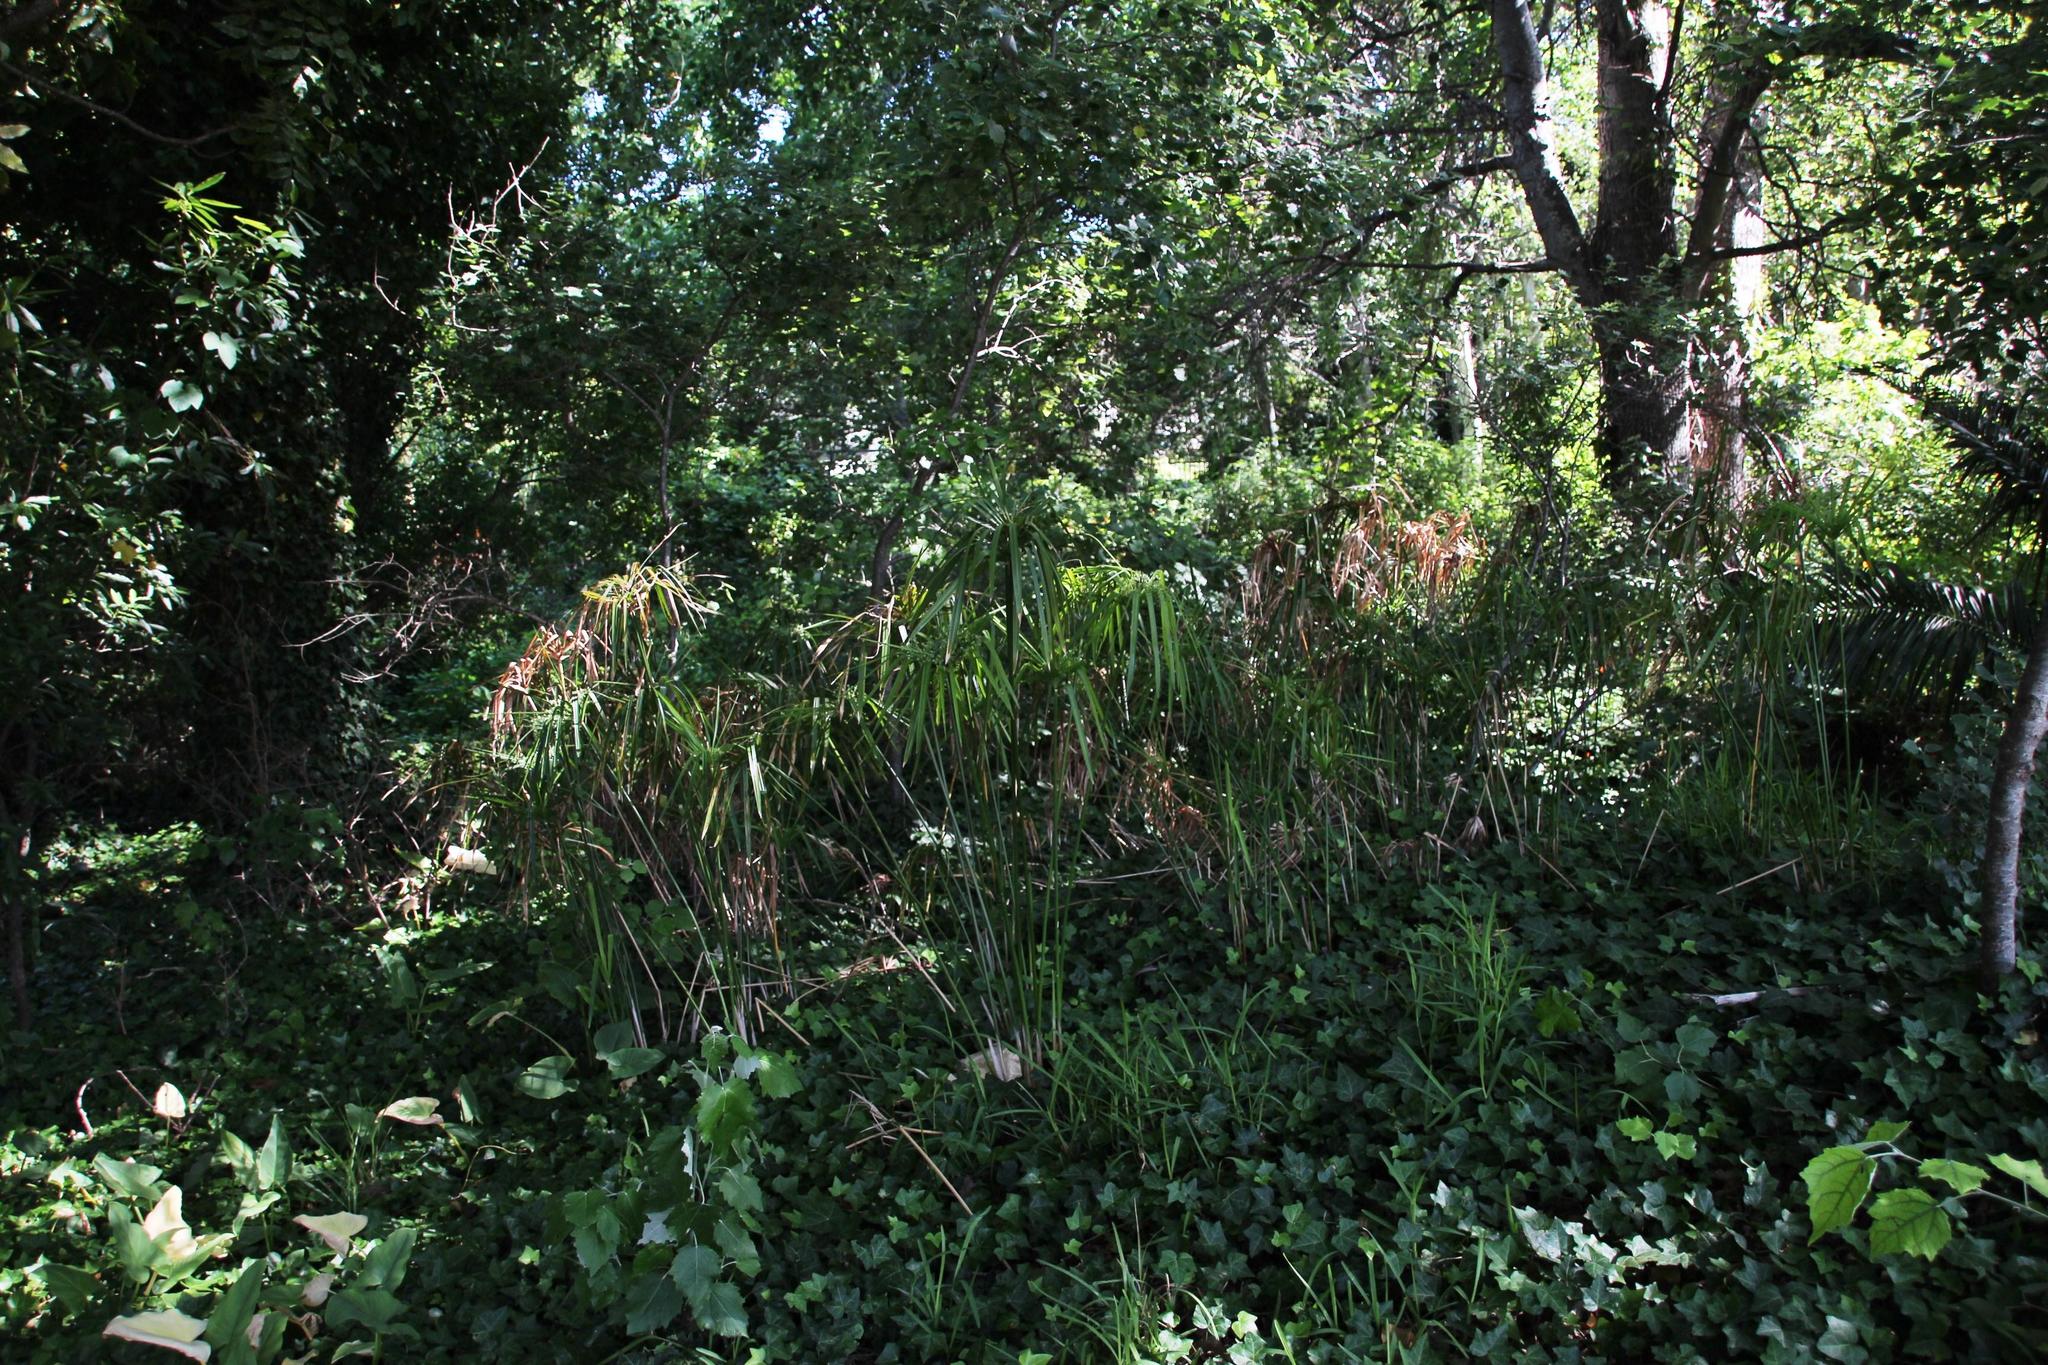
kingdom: Plantae
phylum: Tracheophyta
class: Liliopsida
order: Poales
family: Cyperaceae
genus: Cyperus
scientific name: Cyperus textilis
